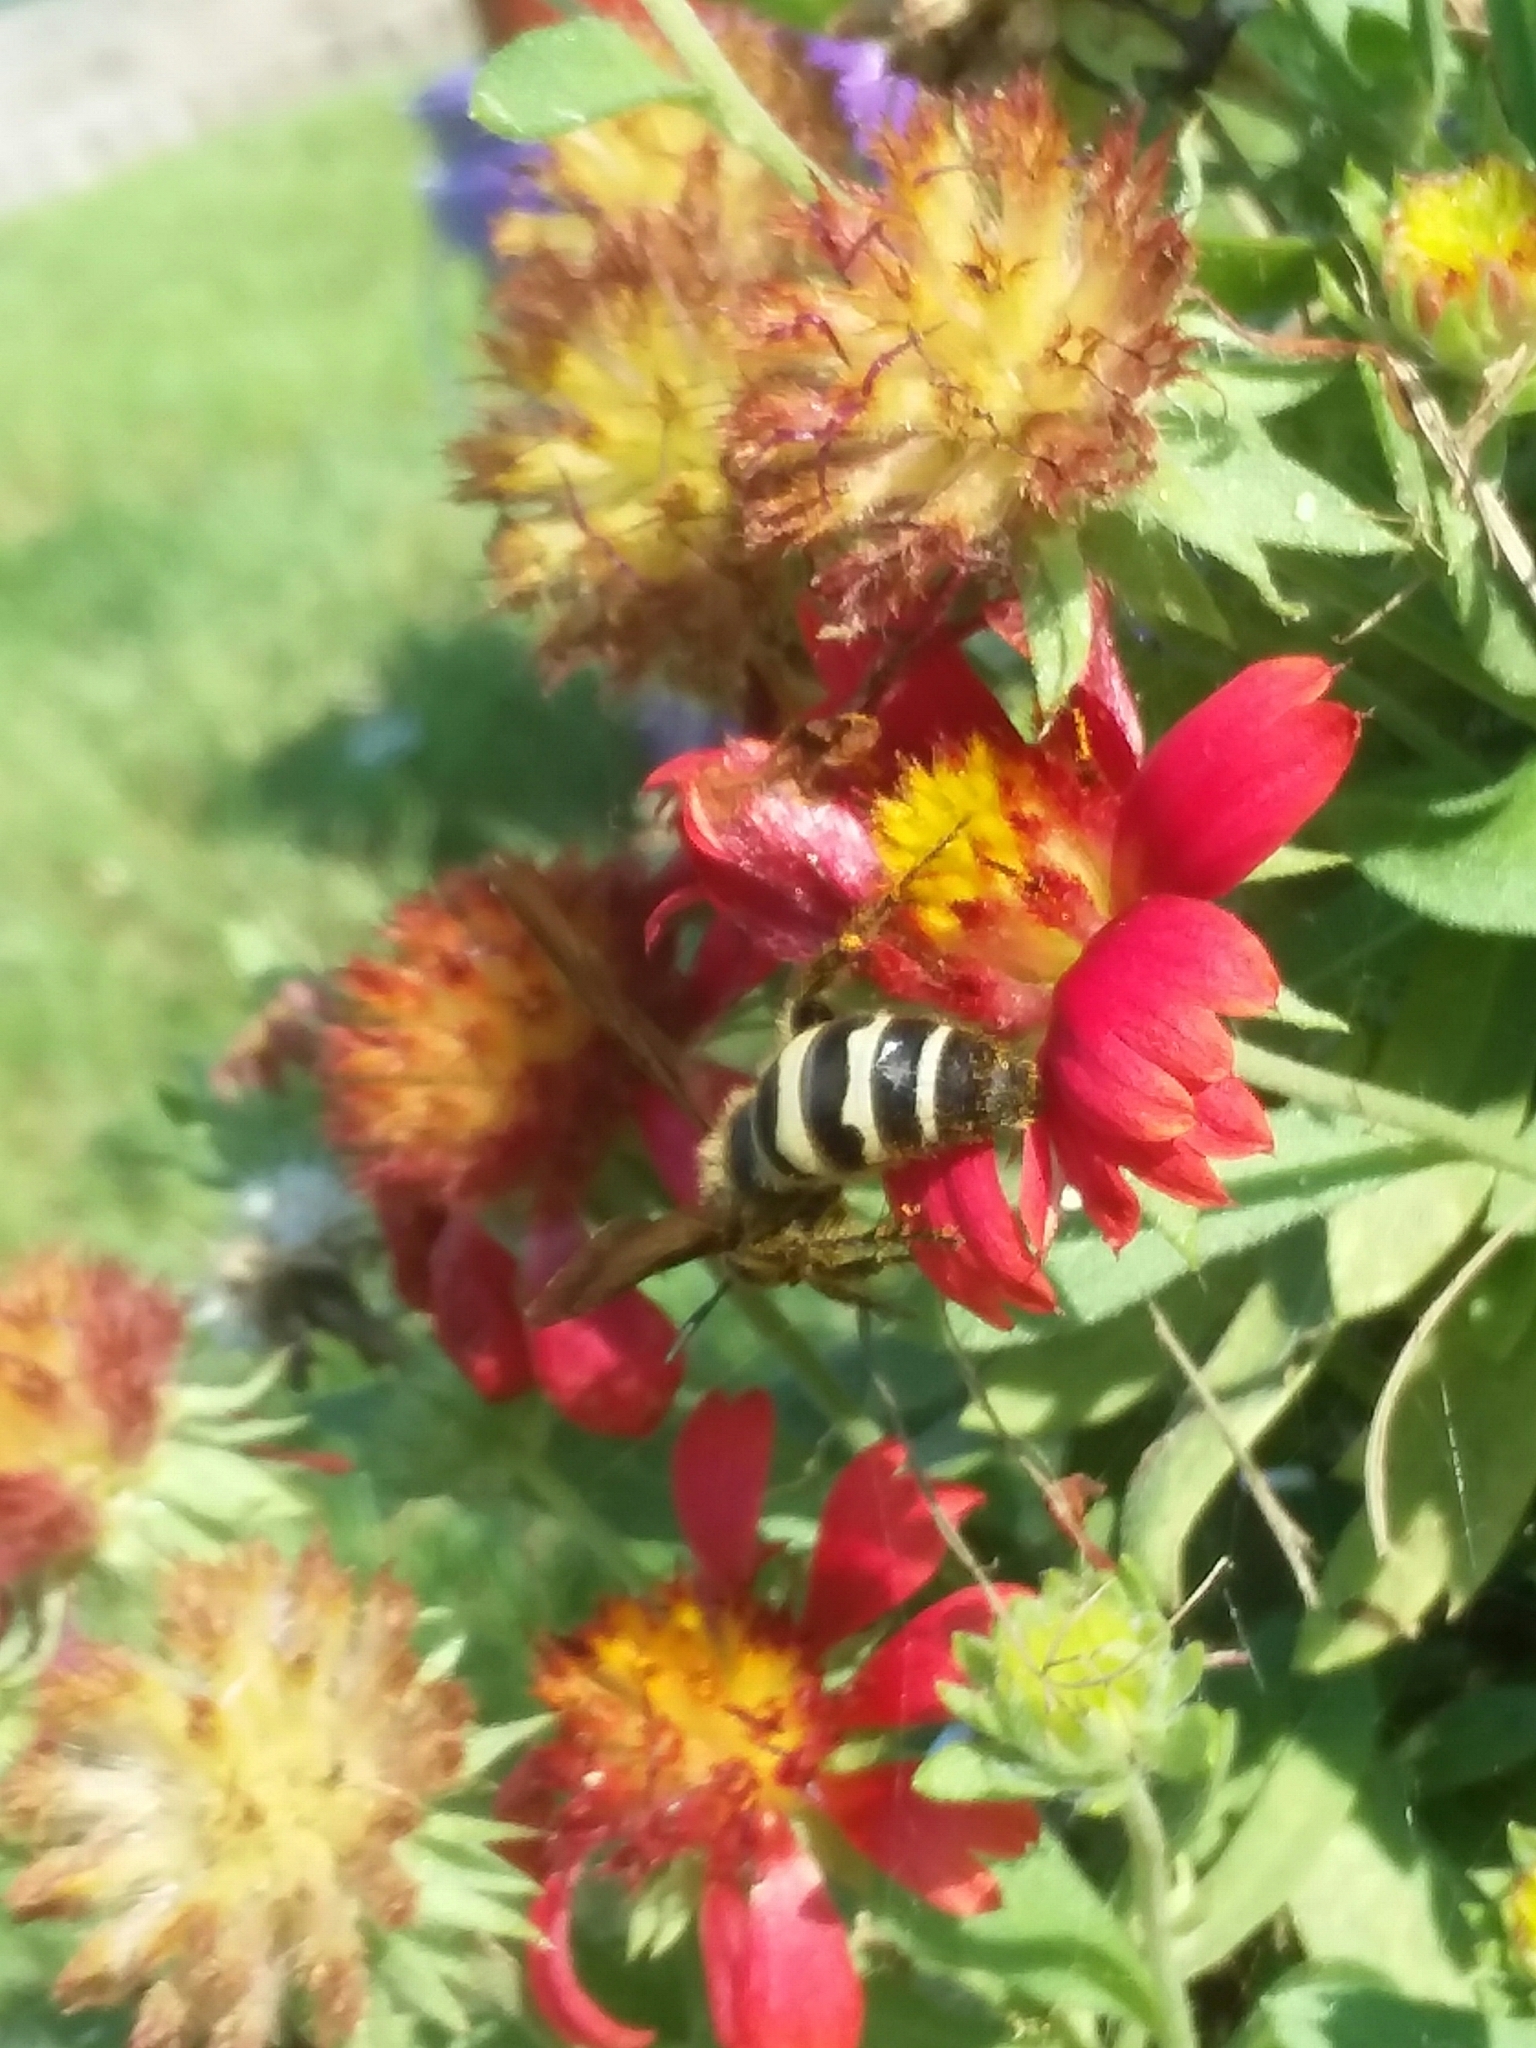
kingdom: Animalia
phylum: Arthropoda
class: Insecta
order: Hymenoptera
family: Scoliidae
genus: Dielis
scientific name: Dielis
